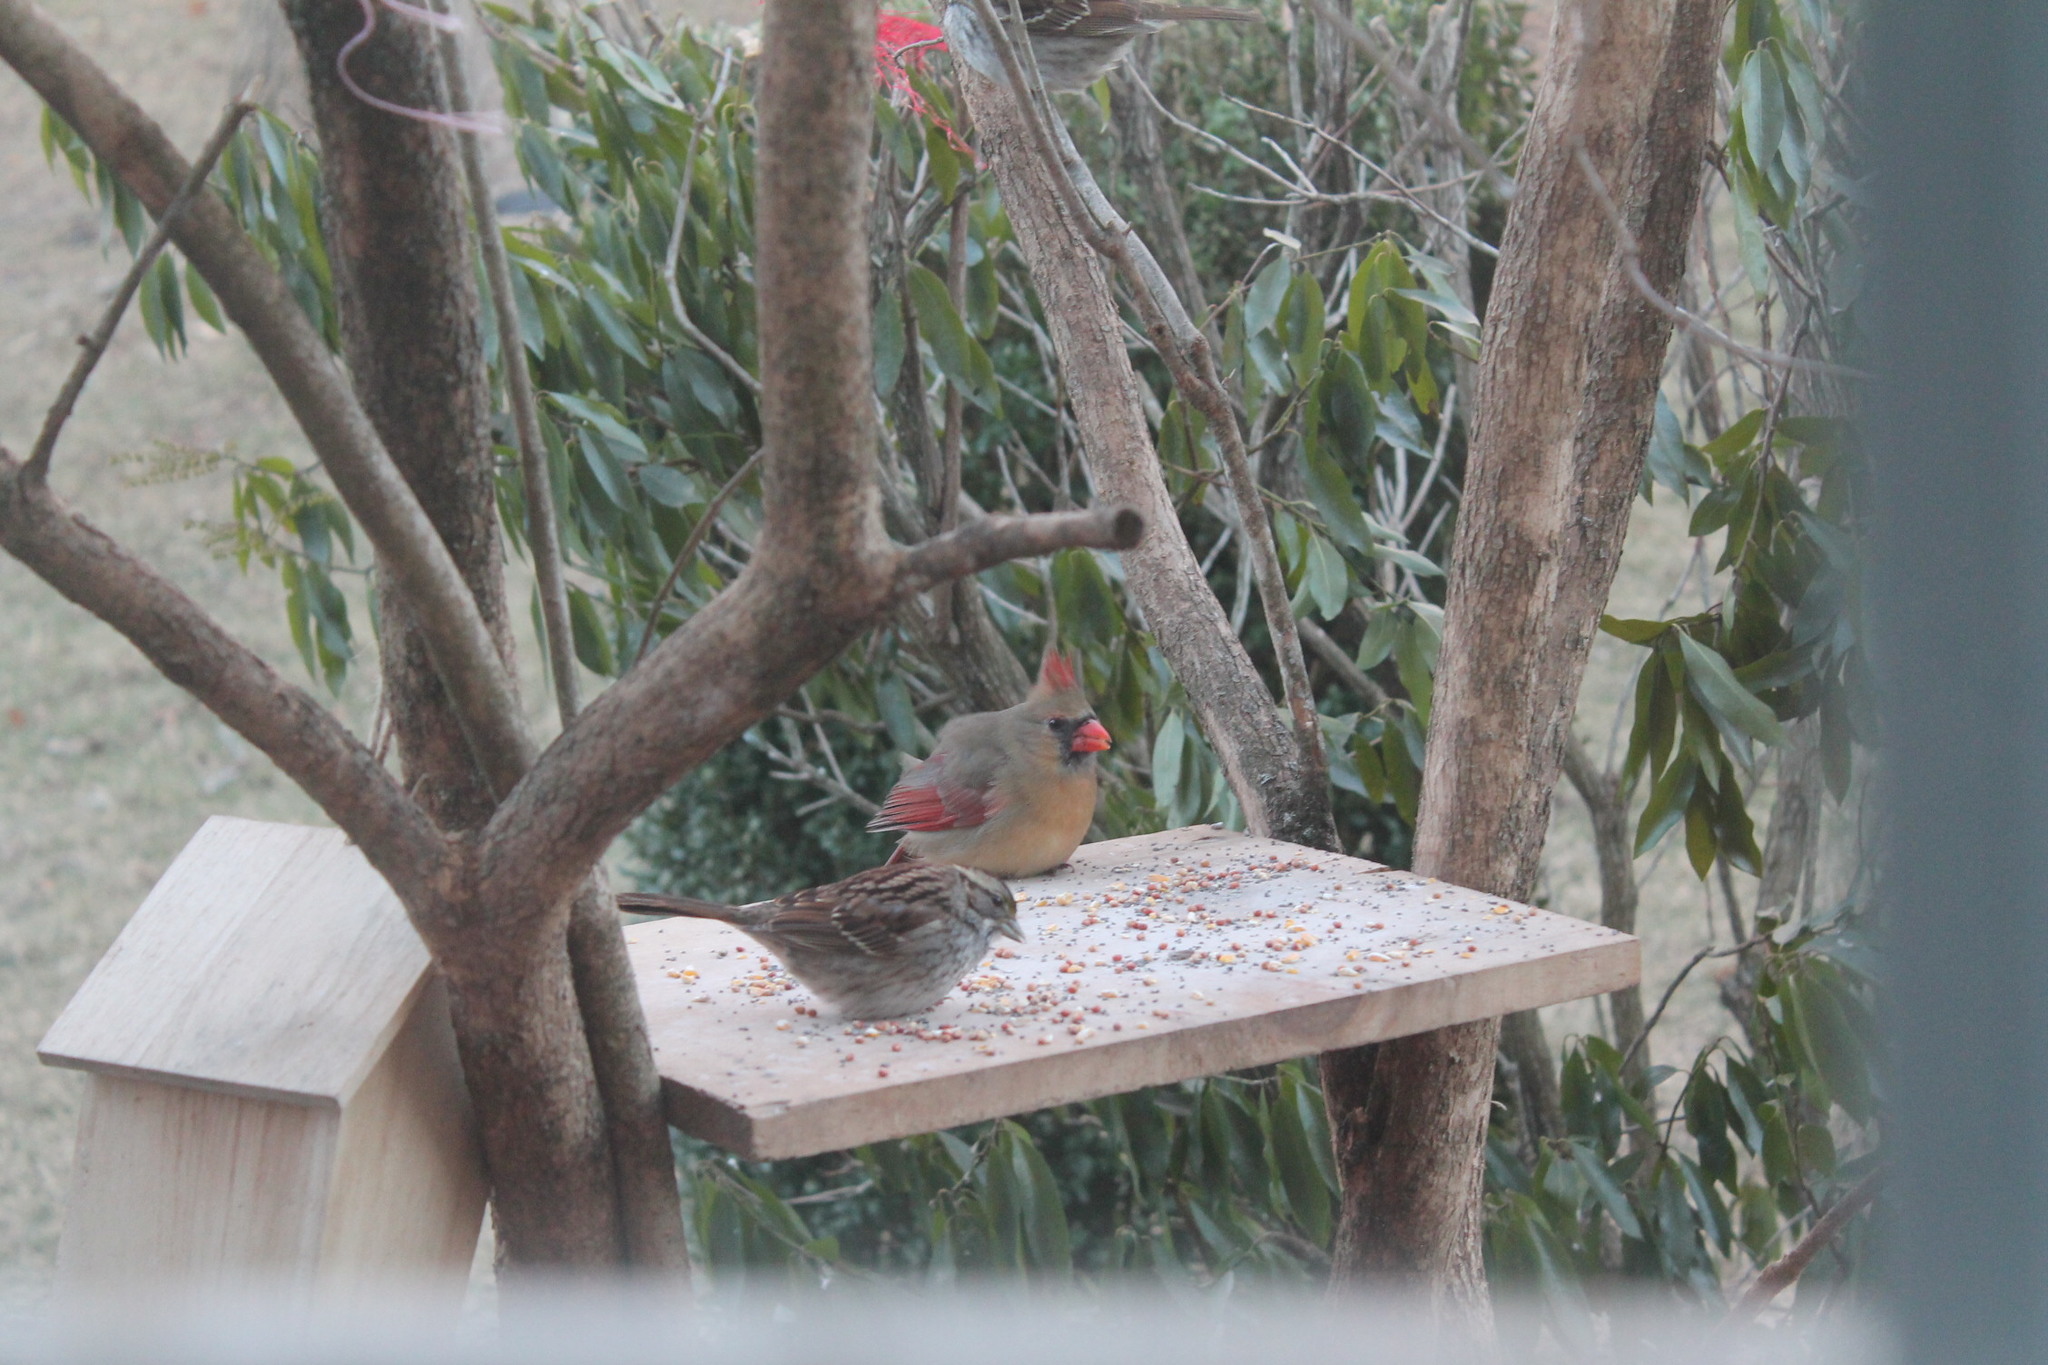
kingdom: Animalia
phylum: Chordata
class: Aves
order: Passeriformes
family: Cardinalidae
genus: Cardinalis
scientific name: Cardinalis cardinalis
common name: Northern cardinal
